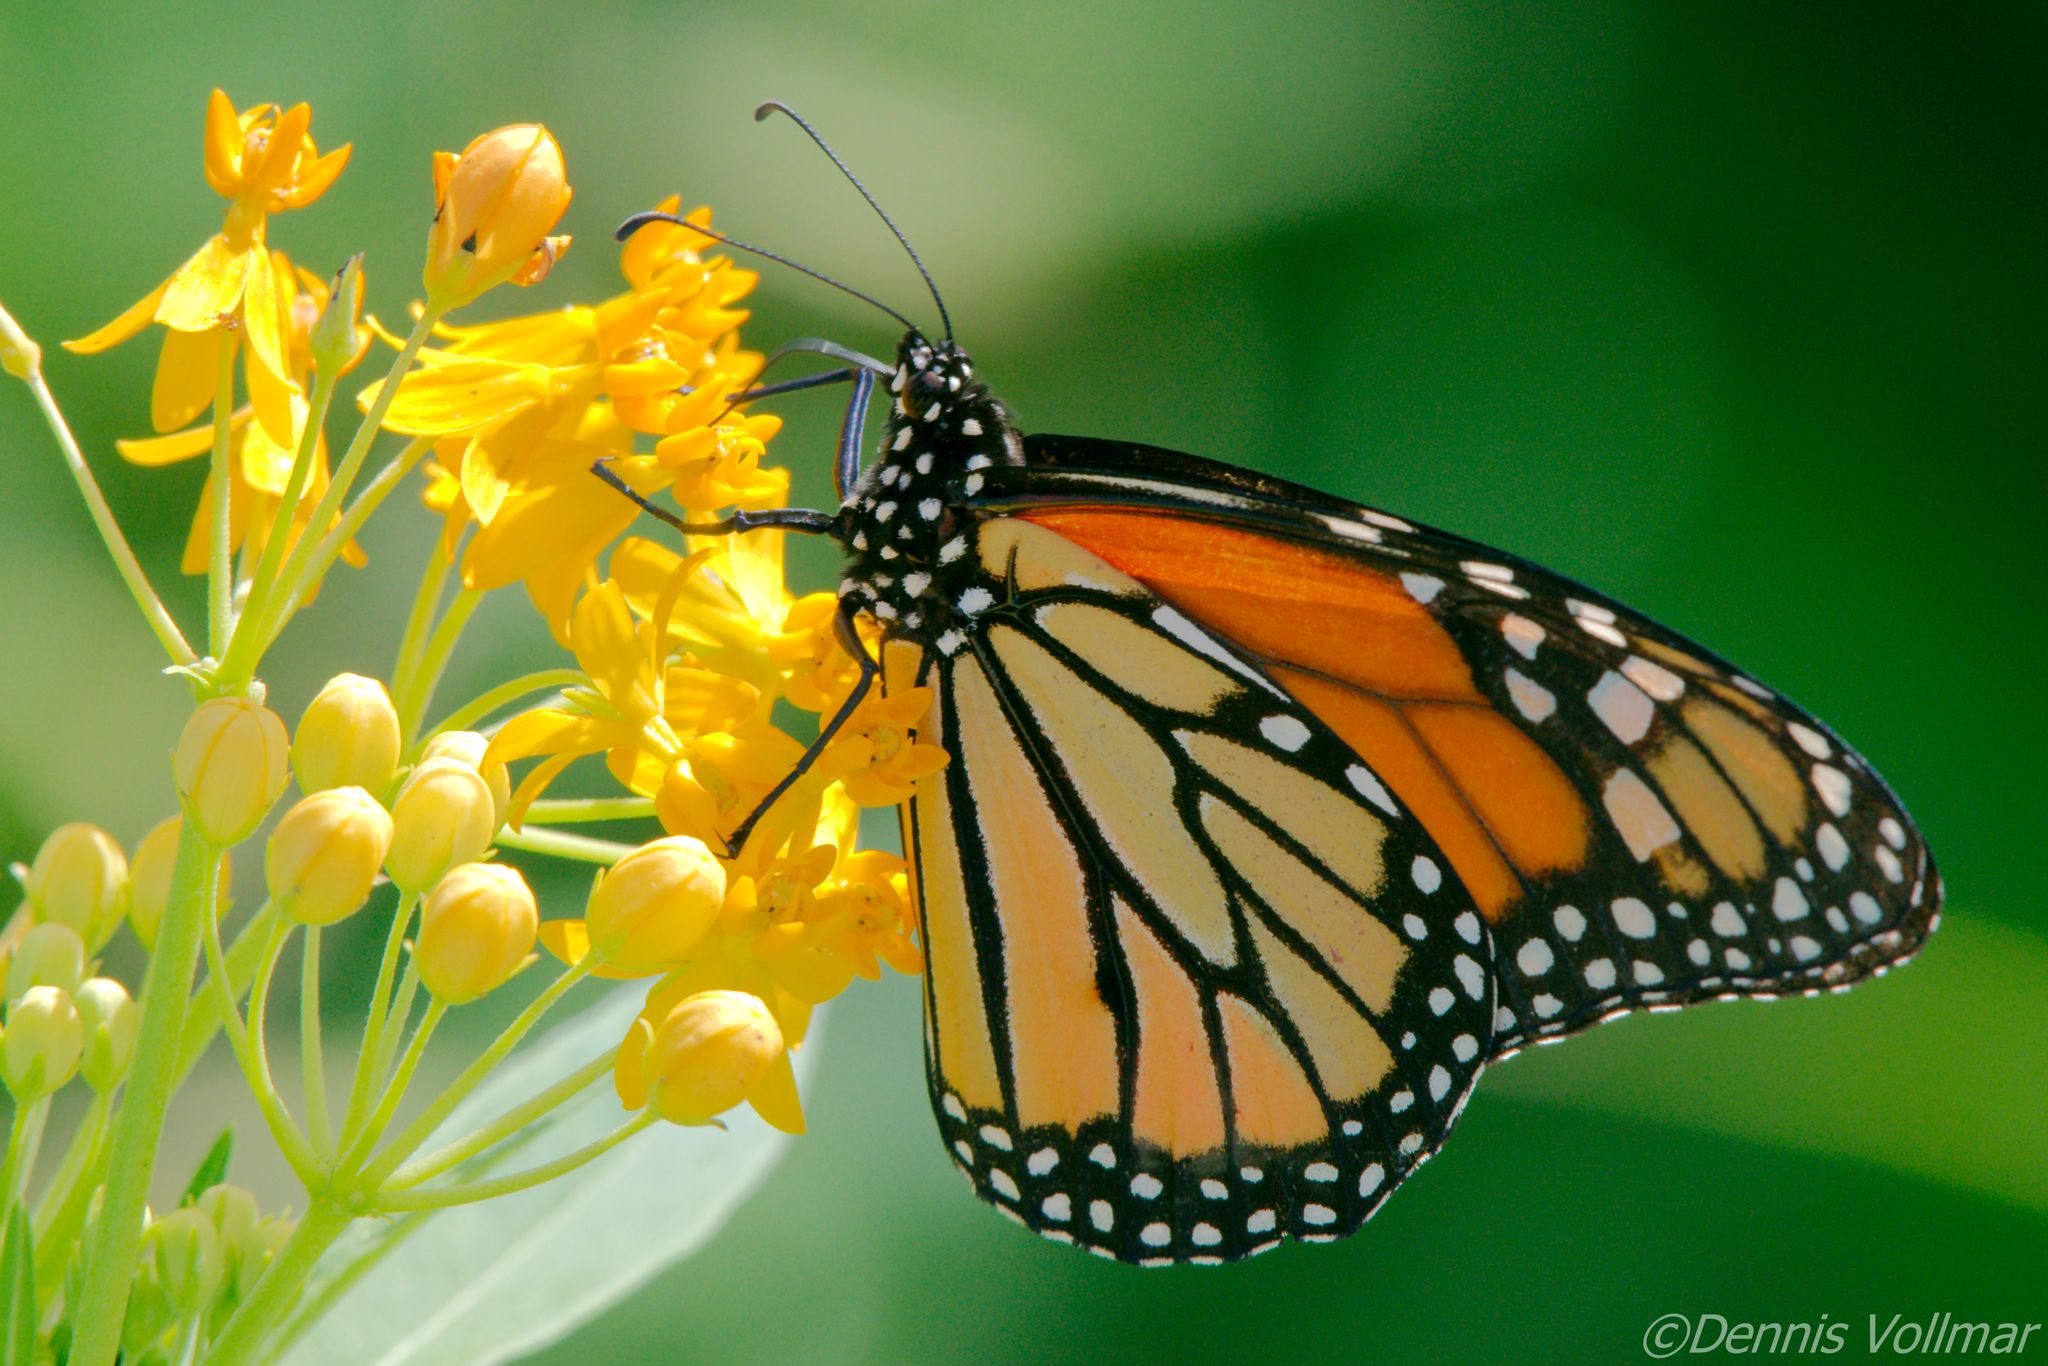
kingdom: Animalia
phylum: Arthropoda
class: Insecta
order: Lepidoptera
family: Nymphalidae
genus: Danaus
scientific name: Danaus plexippus
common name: Monarch
